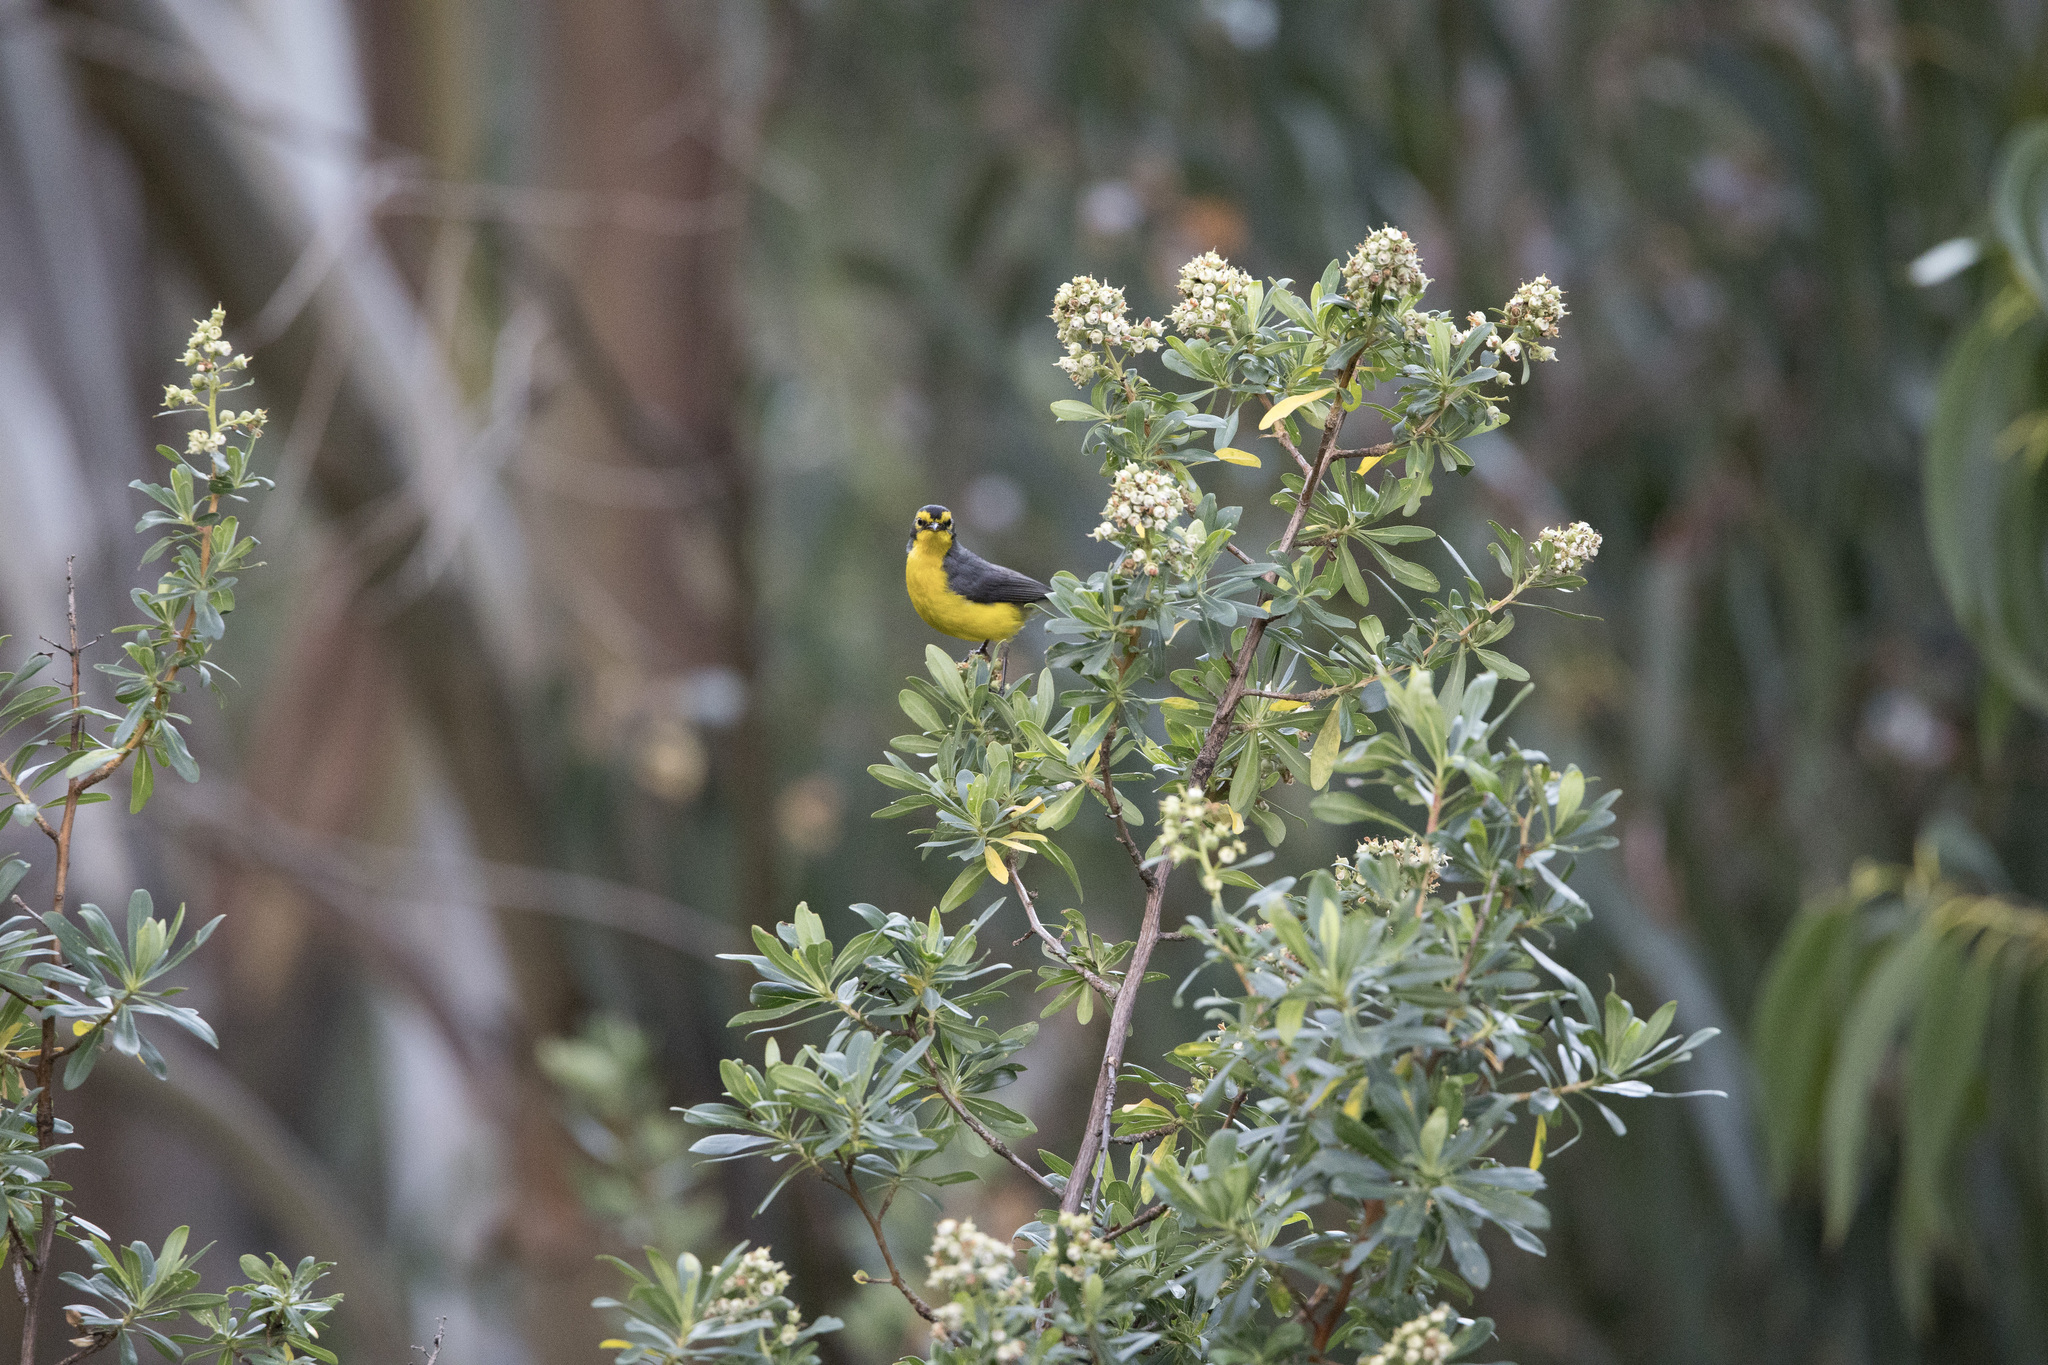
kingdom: Animalia
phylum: Chordata
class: Aves
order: Passeriformes
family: Parulidae
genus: Myioborus
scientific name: Myioborus melanocephalus
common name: Spectacled whitestart
